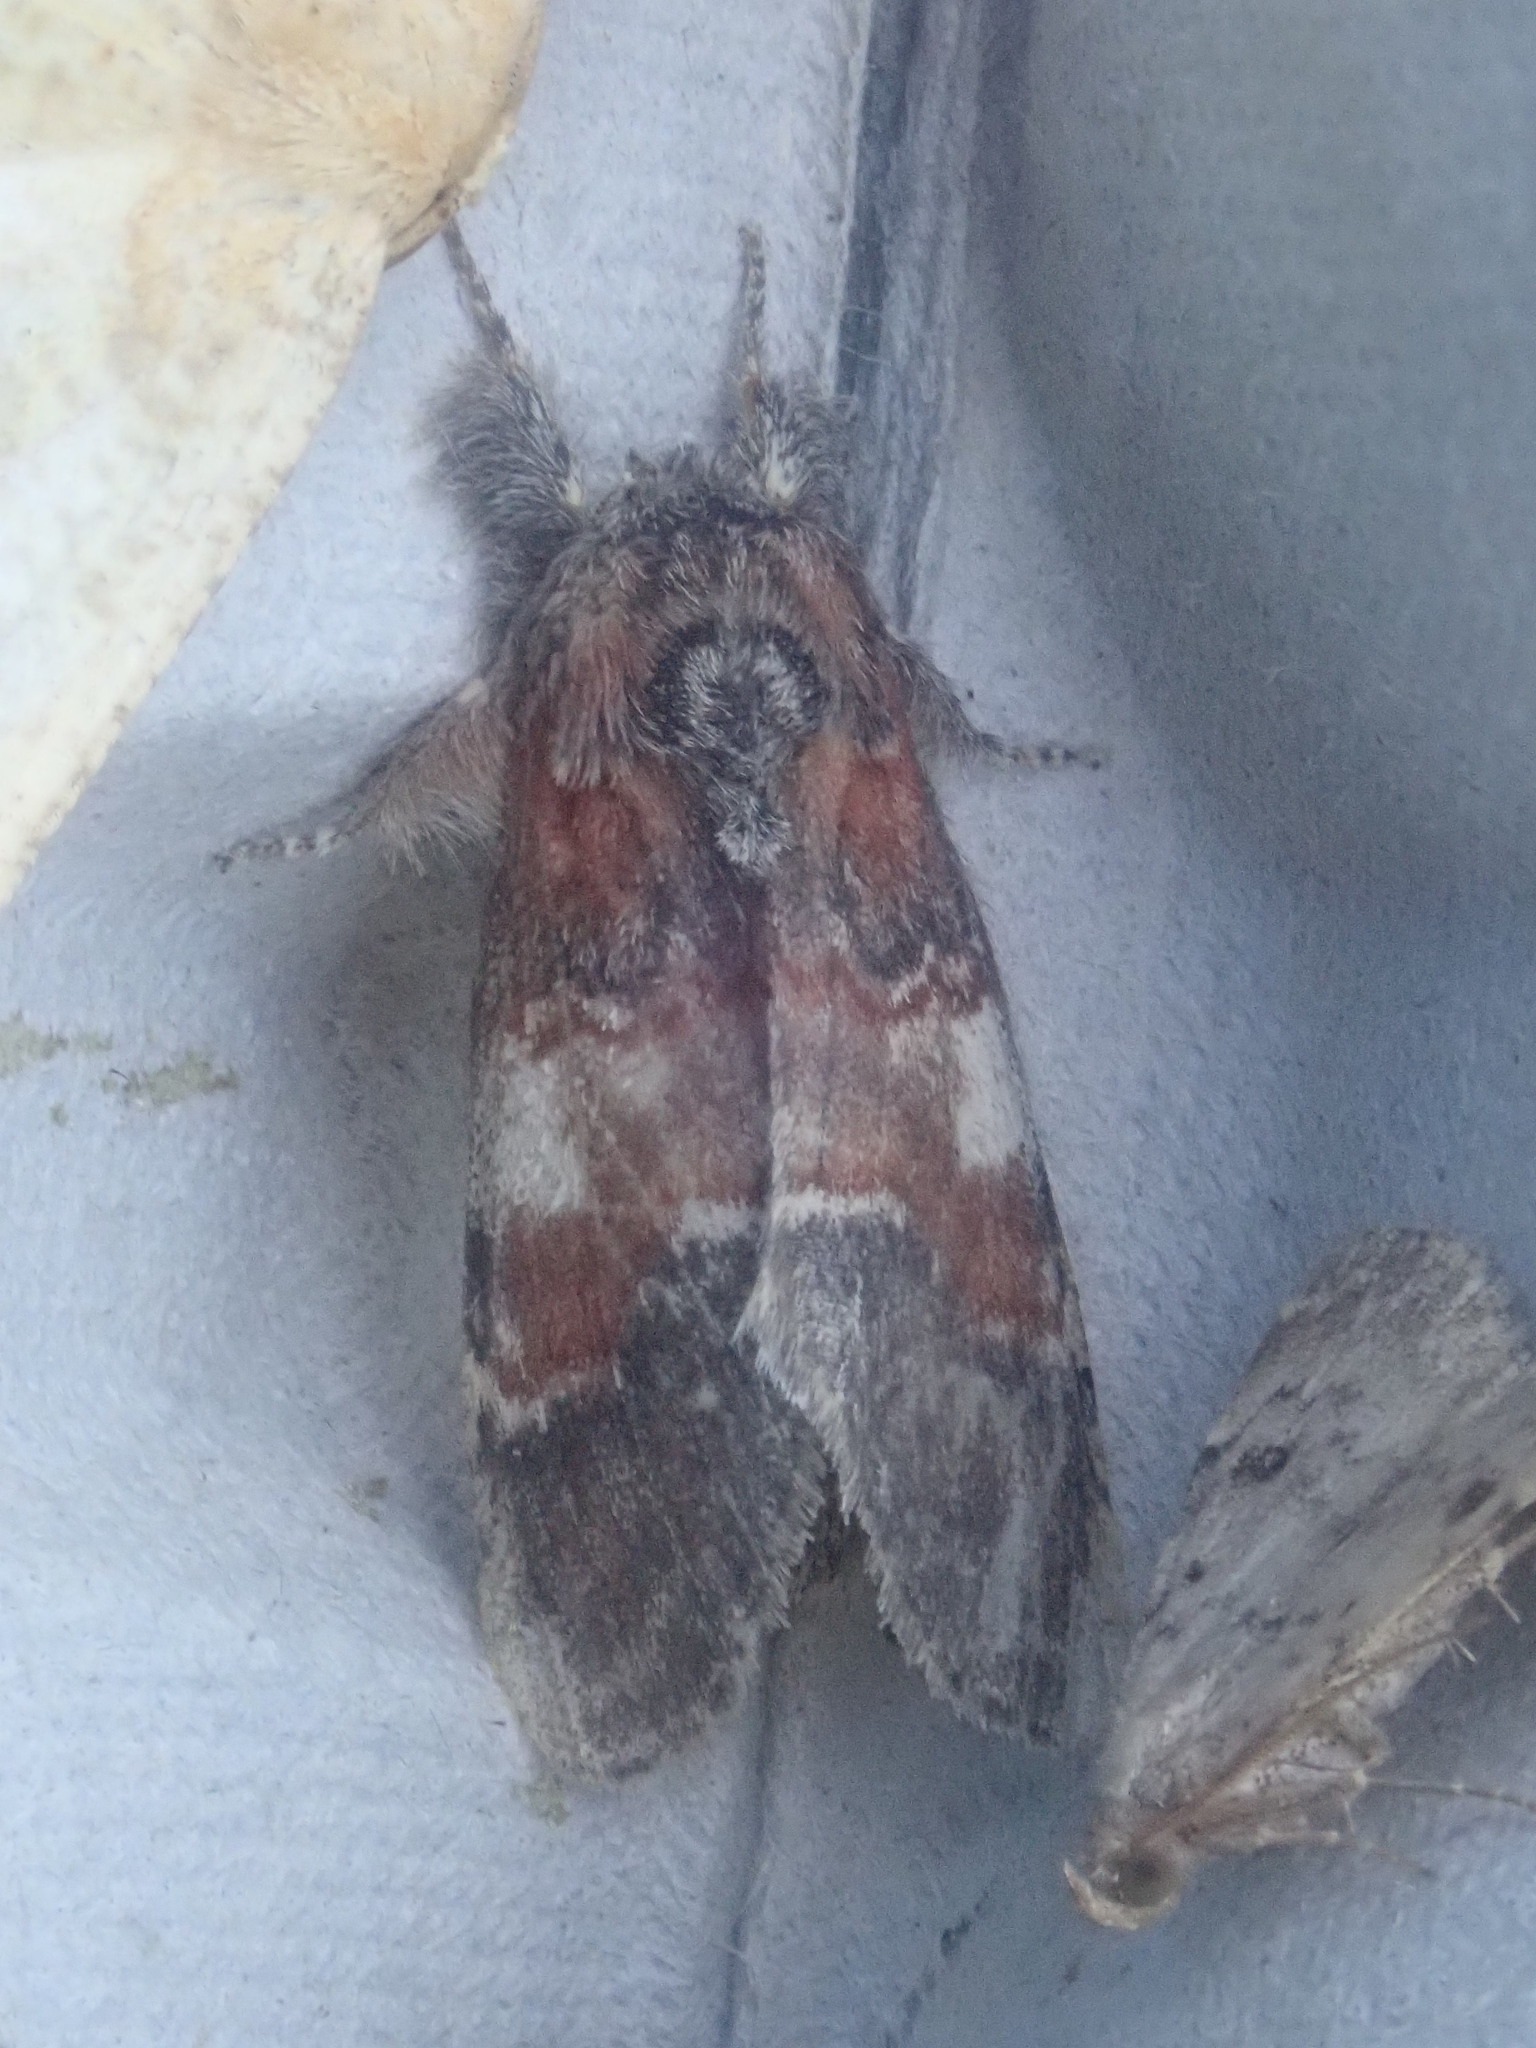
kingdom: Animalia
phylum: Arthropoda
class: Insecta
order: Lepidoptera
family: Notodontidae
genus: Peridea
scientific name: Peridea ferruginea
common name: Chocolate prominent
